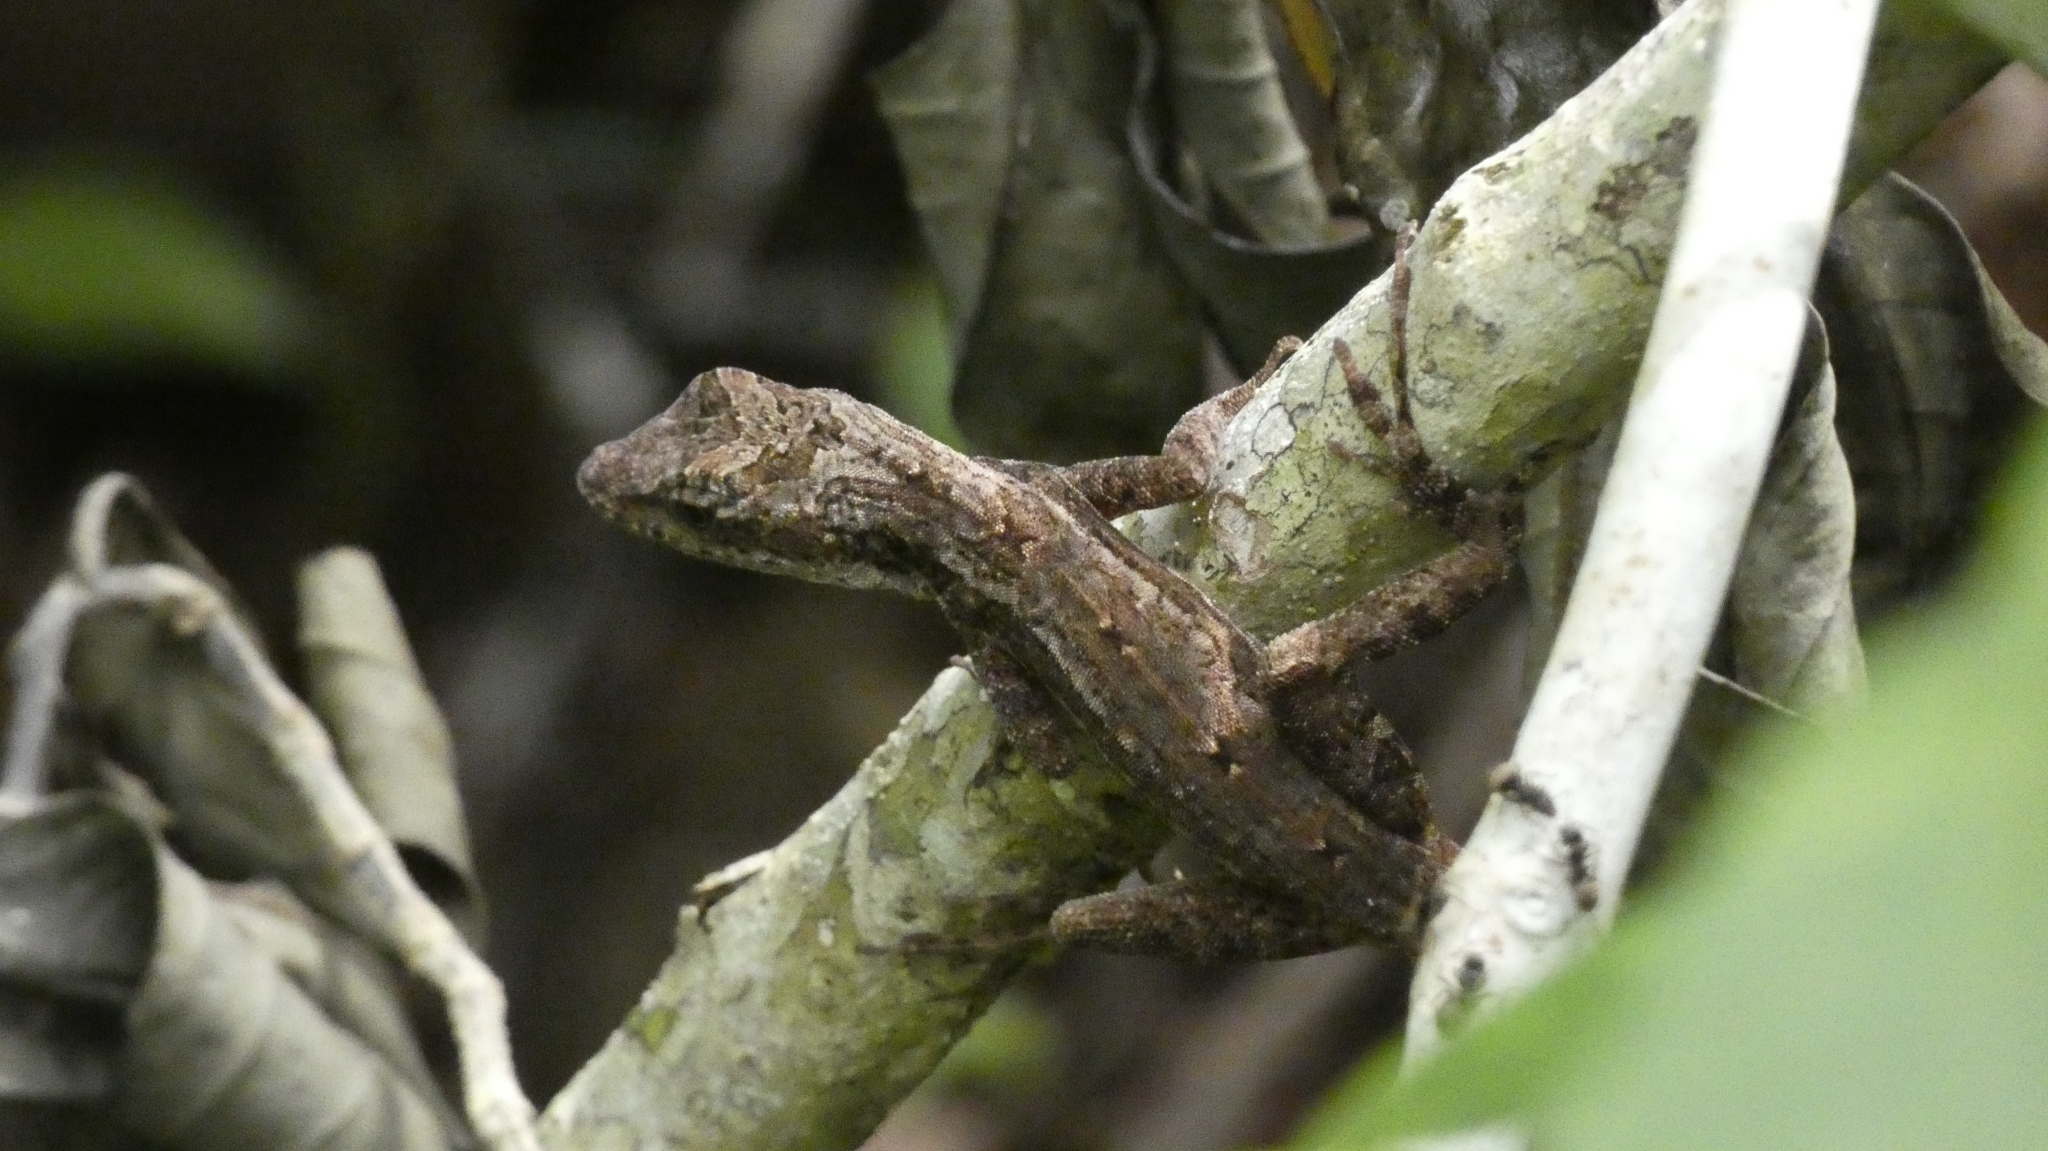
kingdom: Animalia
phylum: Chordata
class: Squamata
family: Dactyloidae
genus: Anolis
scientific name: Anolis lemurinus
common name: Ghost anole
